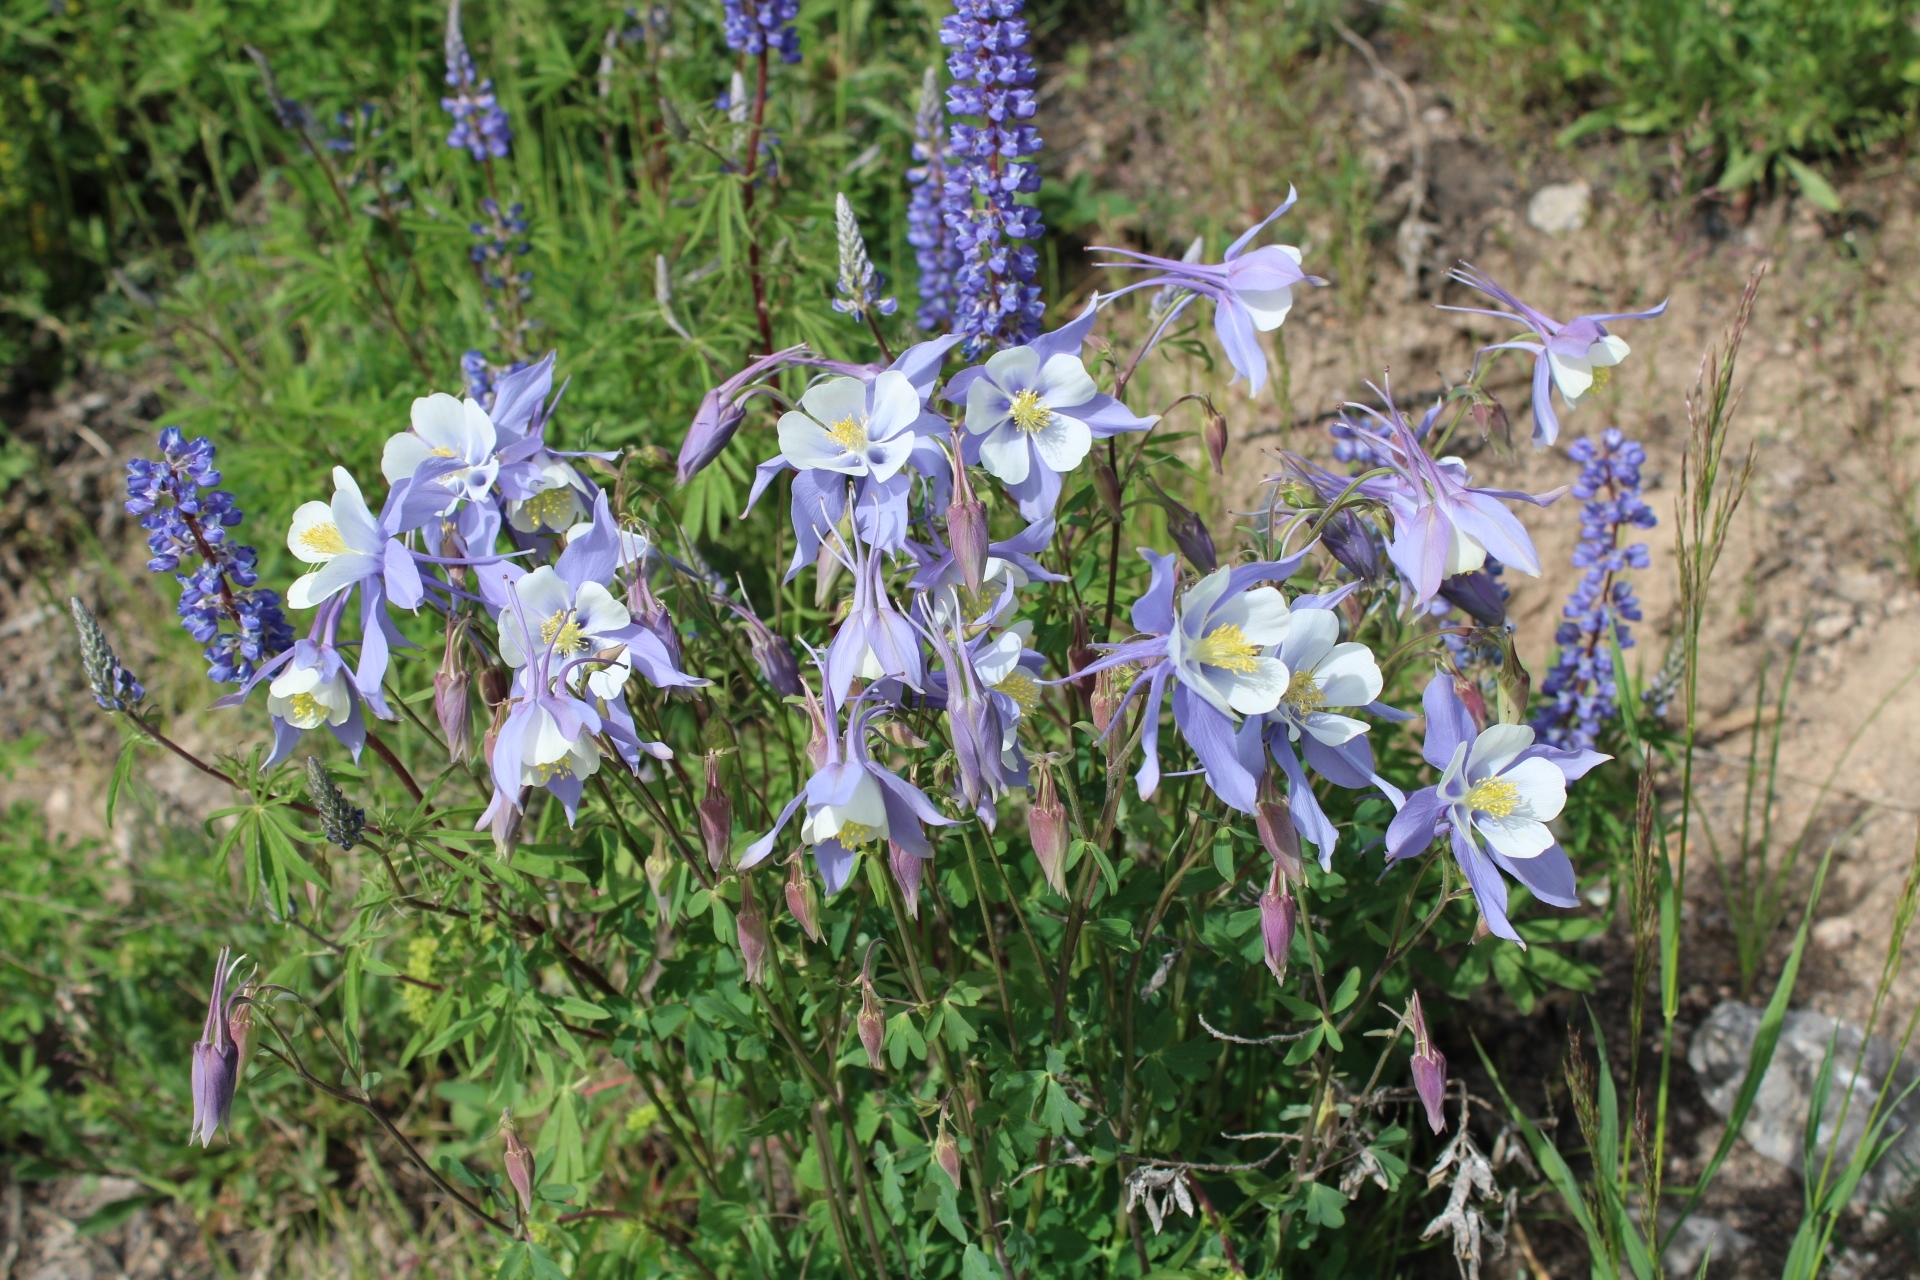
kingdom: Plantae
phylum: Tracheophyta
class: Magnoliopsida
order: Ranunculales
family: Ranunculaceae
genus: Aquilegia
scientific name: Aquilegia coerulea
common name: Rocky mountain columbine
